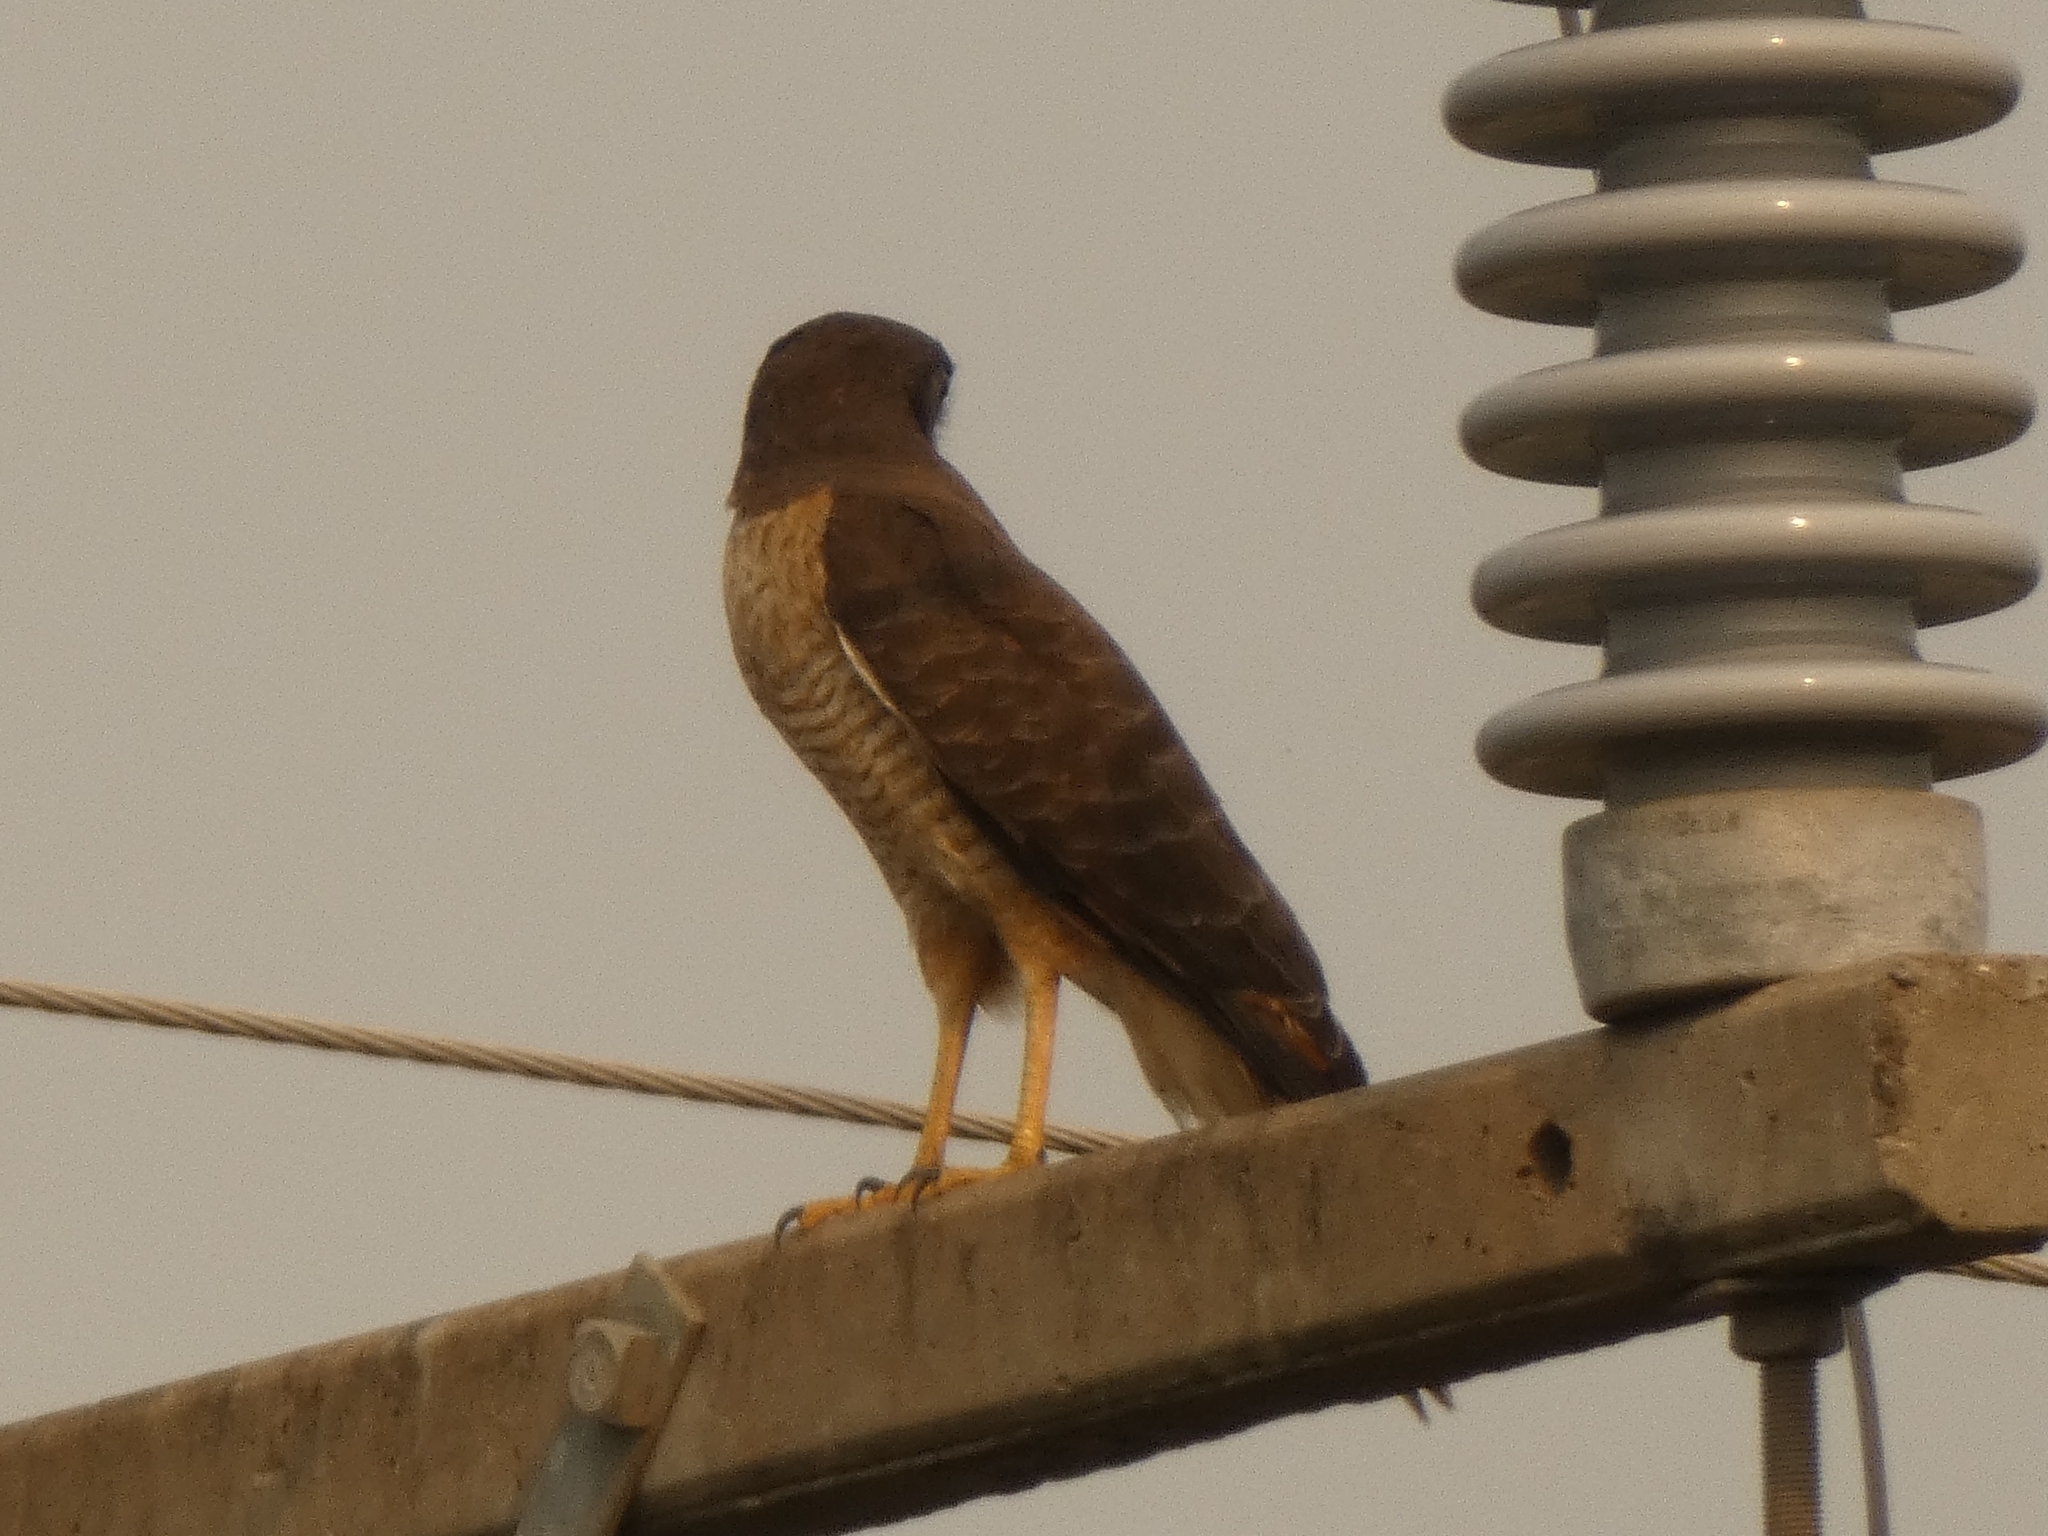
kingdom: Animalia
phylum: Chordata
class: Aves
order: Accipitriformes
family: Accipitridae
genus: Rupornis
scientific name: Rupornis magnirostris
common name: Roadside hawk
